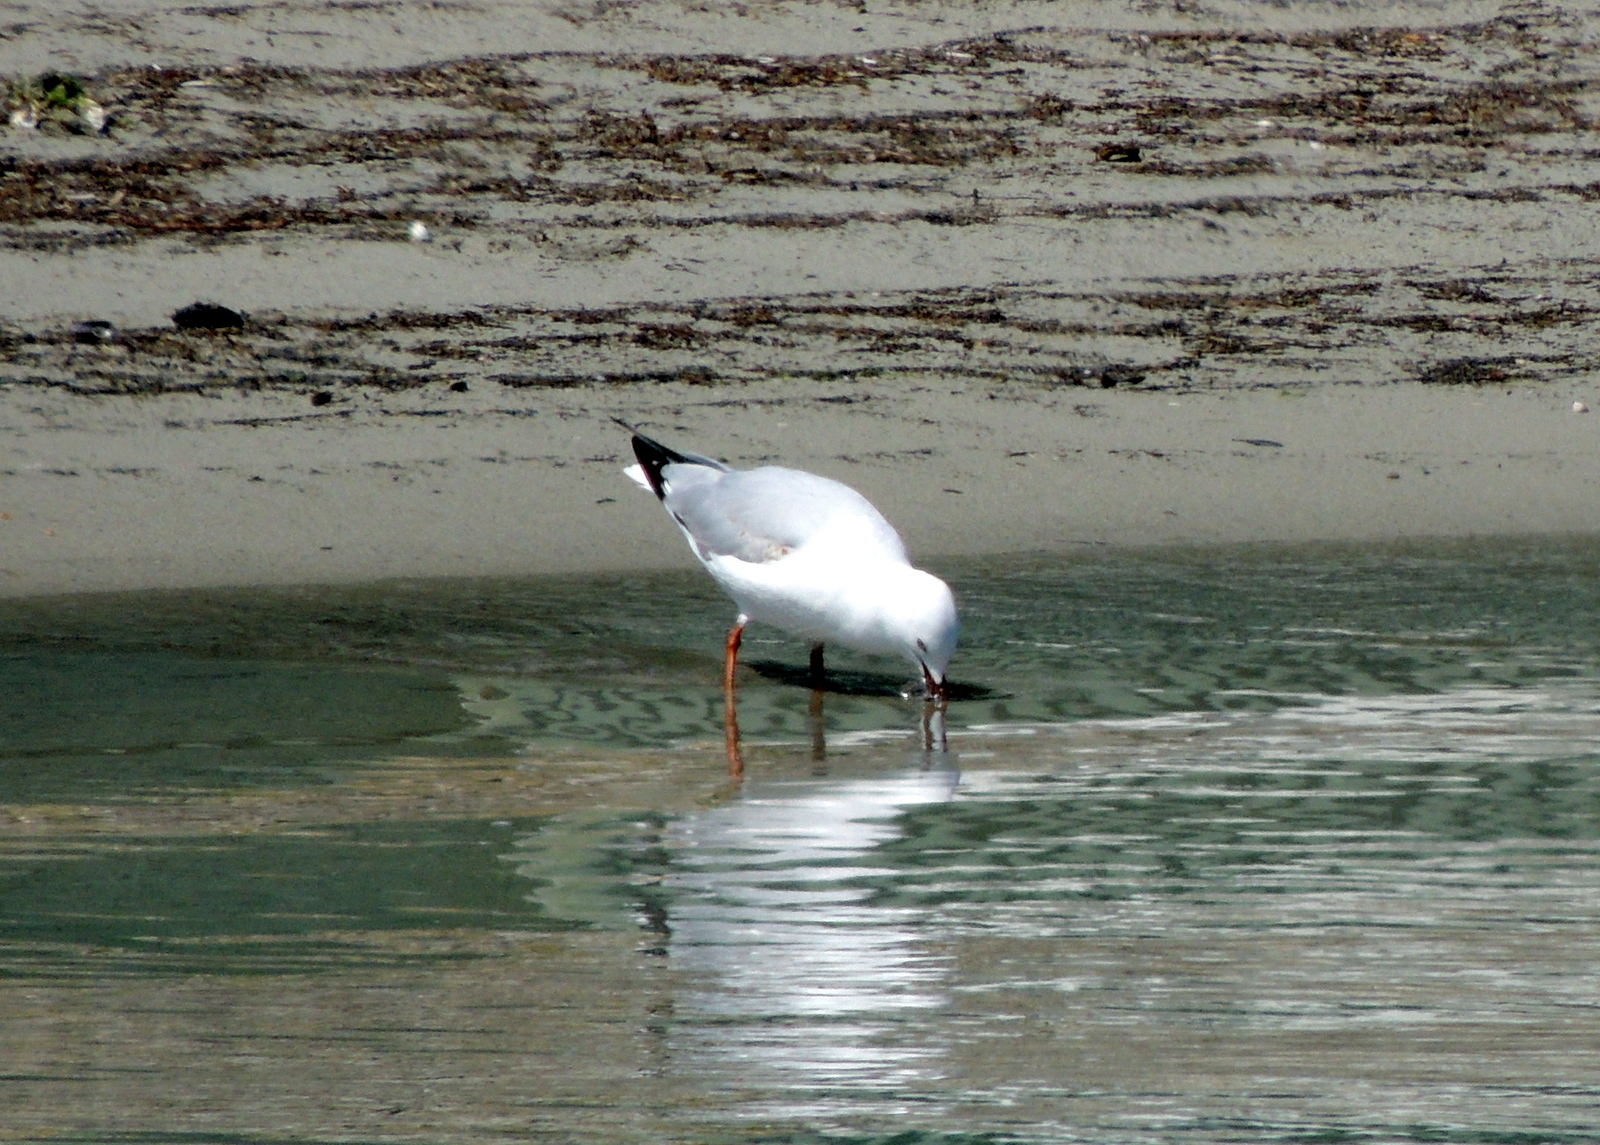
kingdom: Animalia
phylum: Chordata
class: Aves
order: Charadriiformes
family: Laridae
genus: Chroicocephalus
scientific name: Chroicocephalus novaehollandiae
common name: Silver gull
